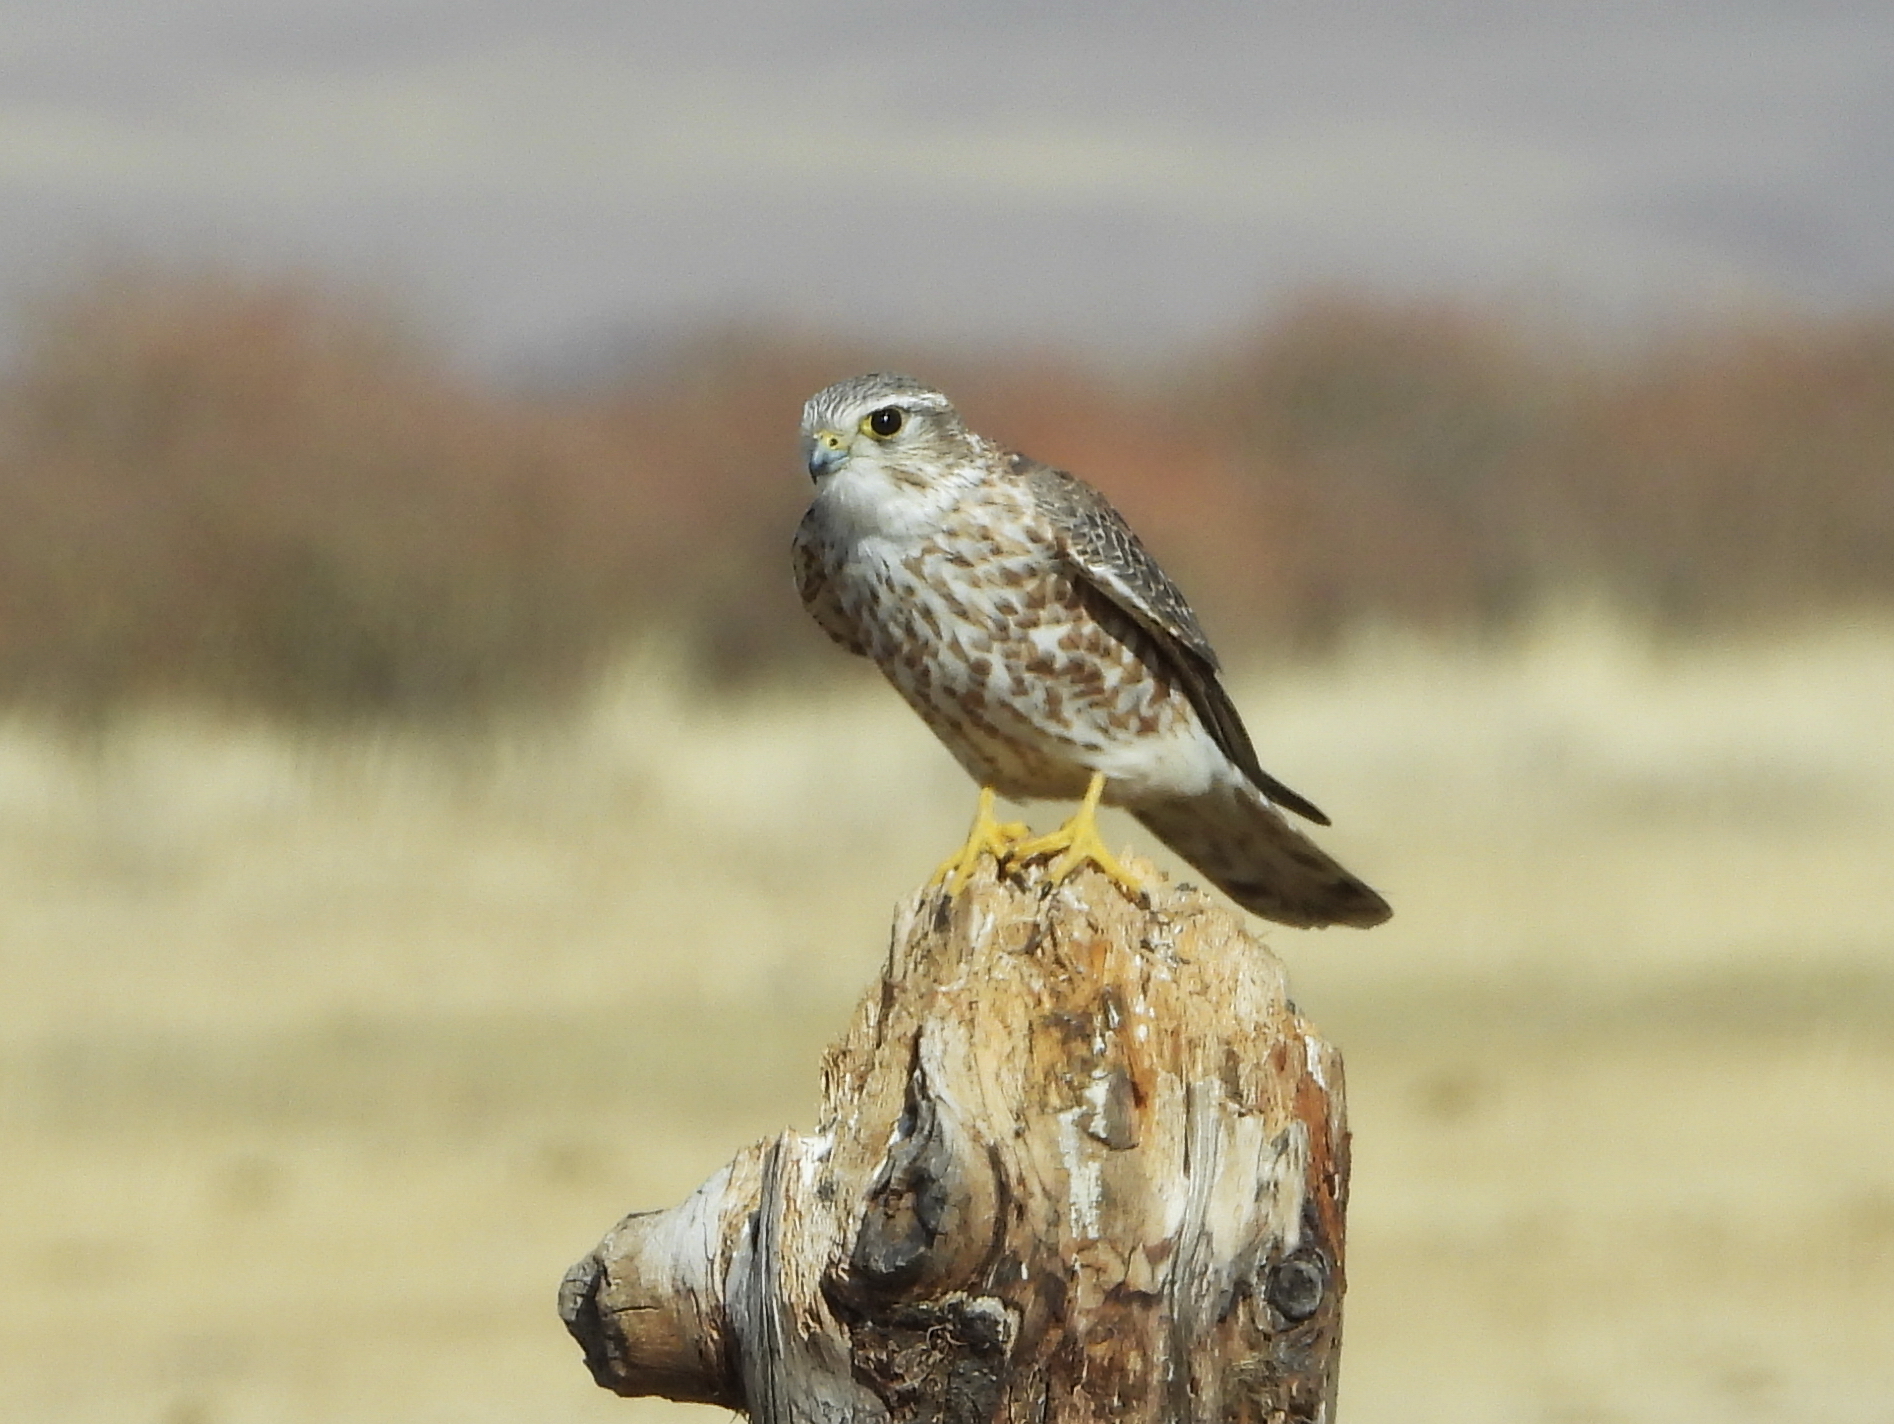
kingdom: Animalia
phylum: Chordata
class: Aves
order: Falconiformes
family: Falconidae
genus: Falco
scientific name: Falco columbarius
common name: Merlin
